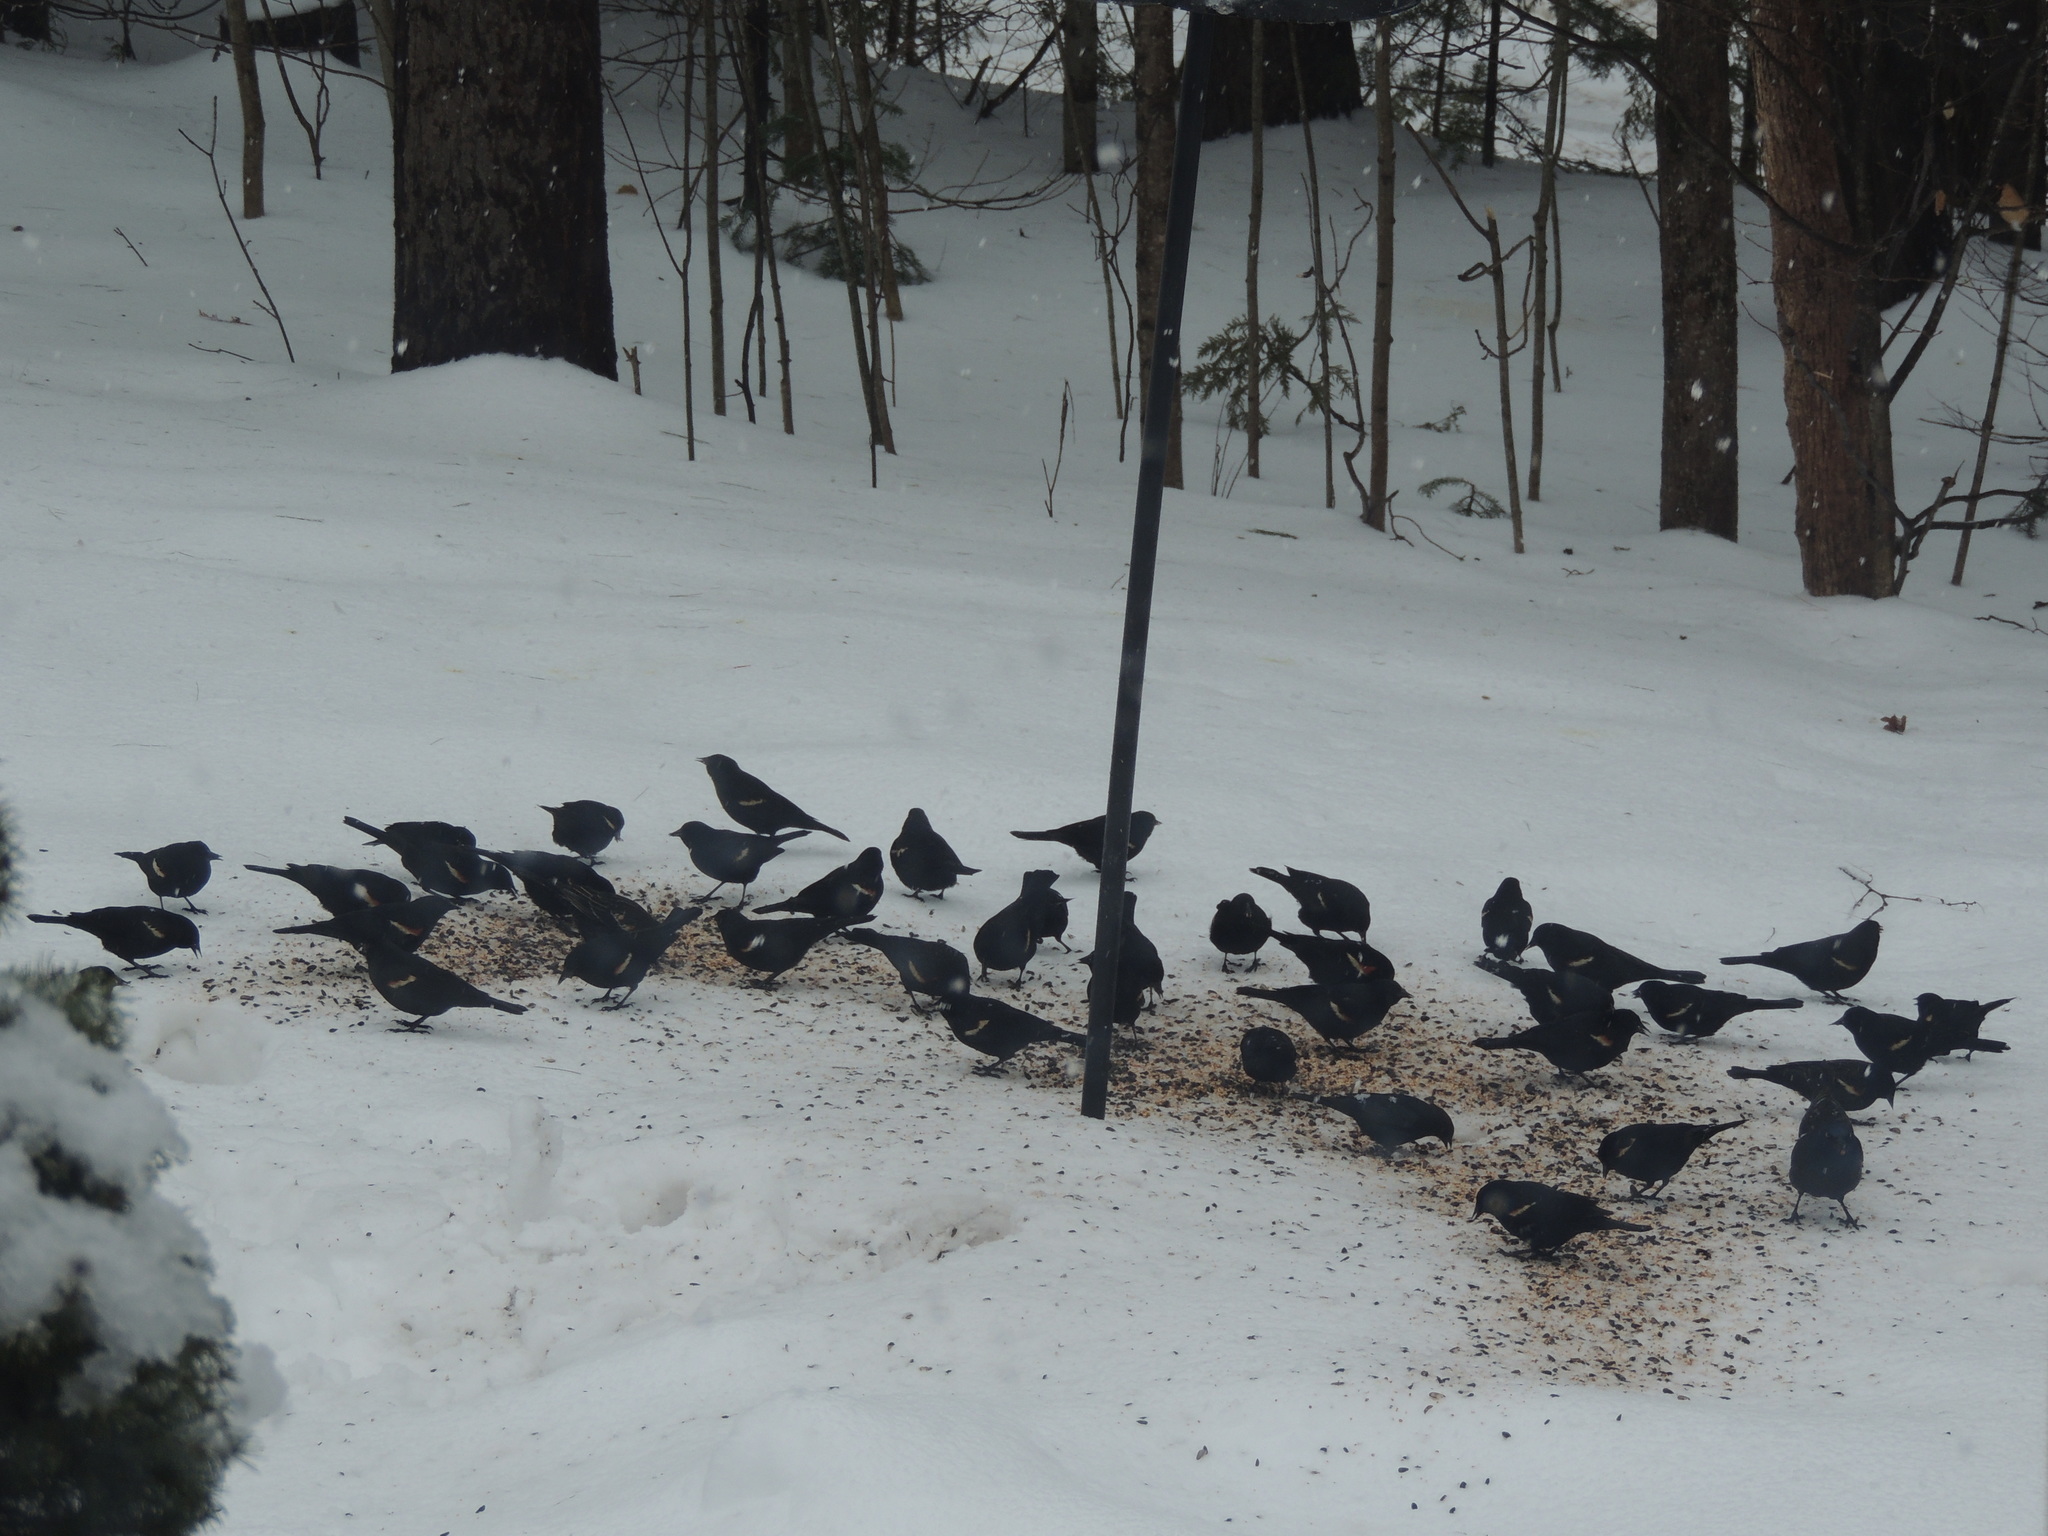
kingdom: Animalia
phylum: Chordata
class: Aves
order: Passeriformes
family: Icteridae
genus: Agelaius
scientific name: Agelaius phoeniceus
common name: Red-winged blackbird
